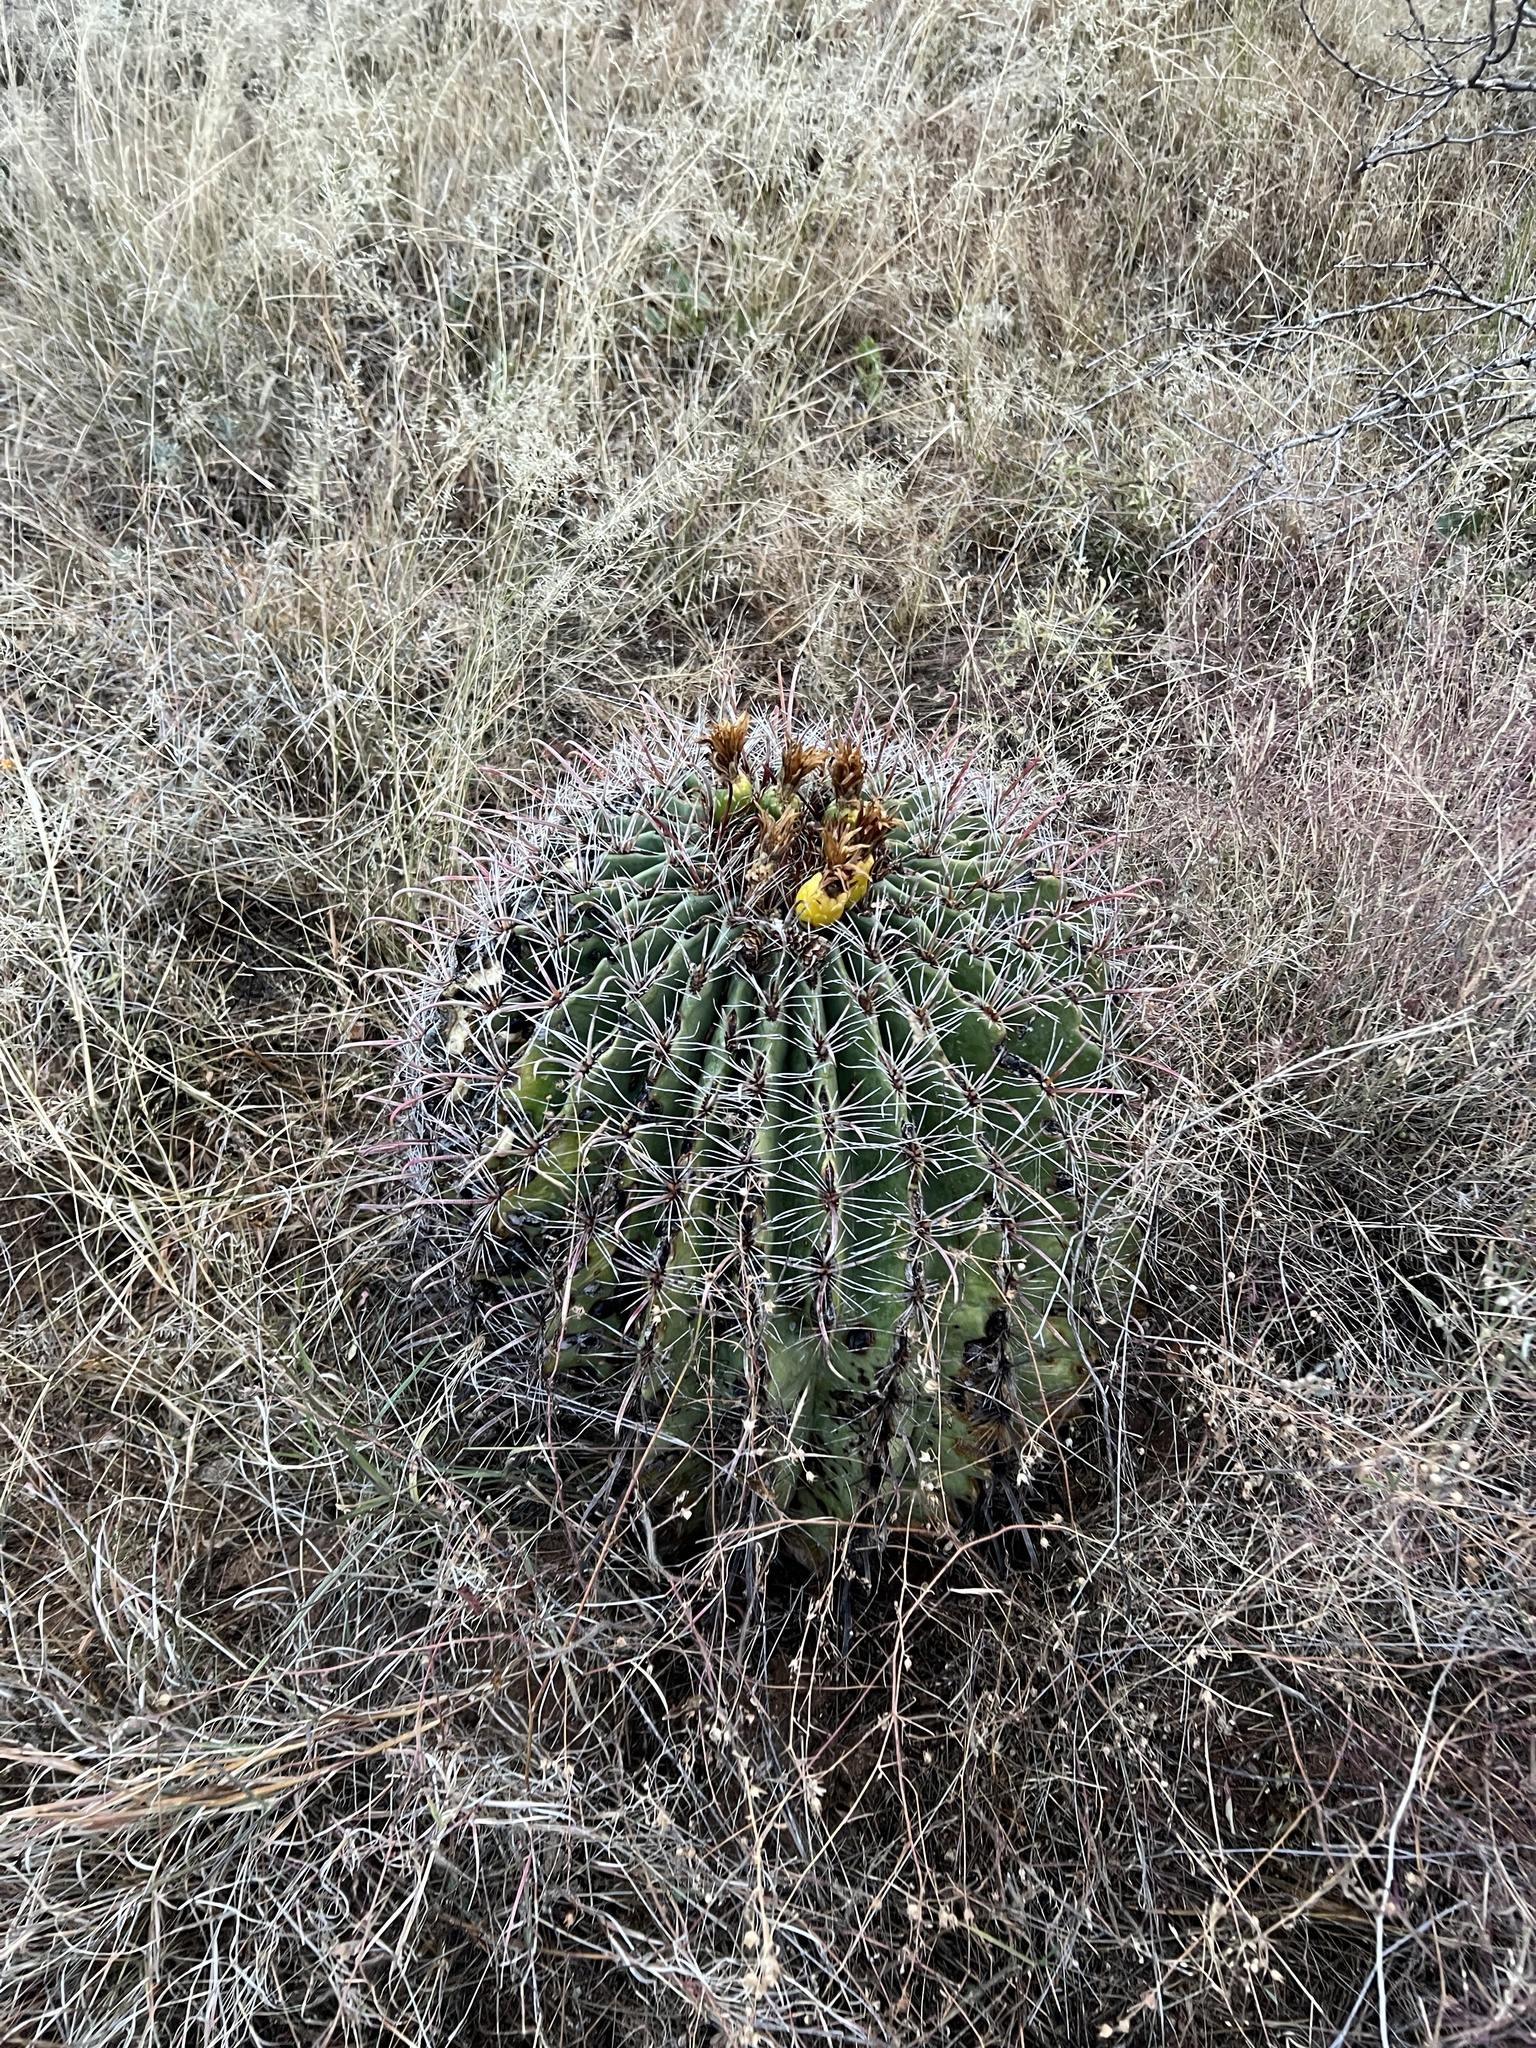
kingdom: Plantae
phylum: Tracheophyta
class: Magnoliopsida
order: Caryophyllales
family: Cactaceae
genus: Ferocactus
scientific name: Ferocactus wislizeni
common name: Candy barrel cactus
